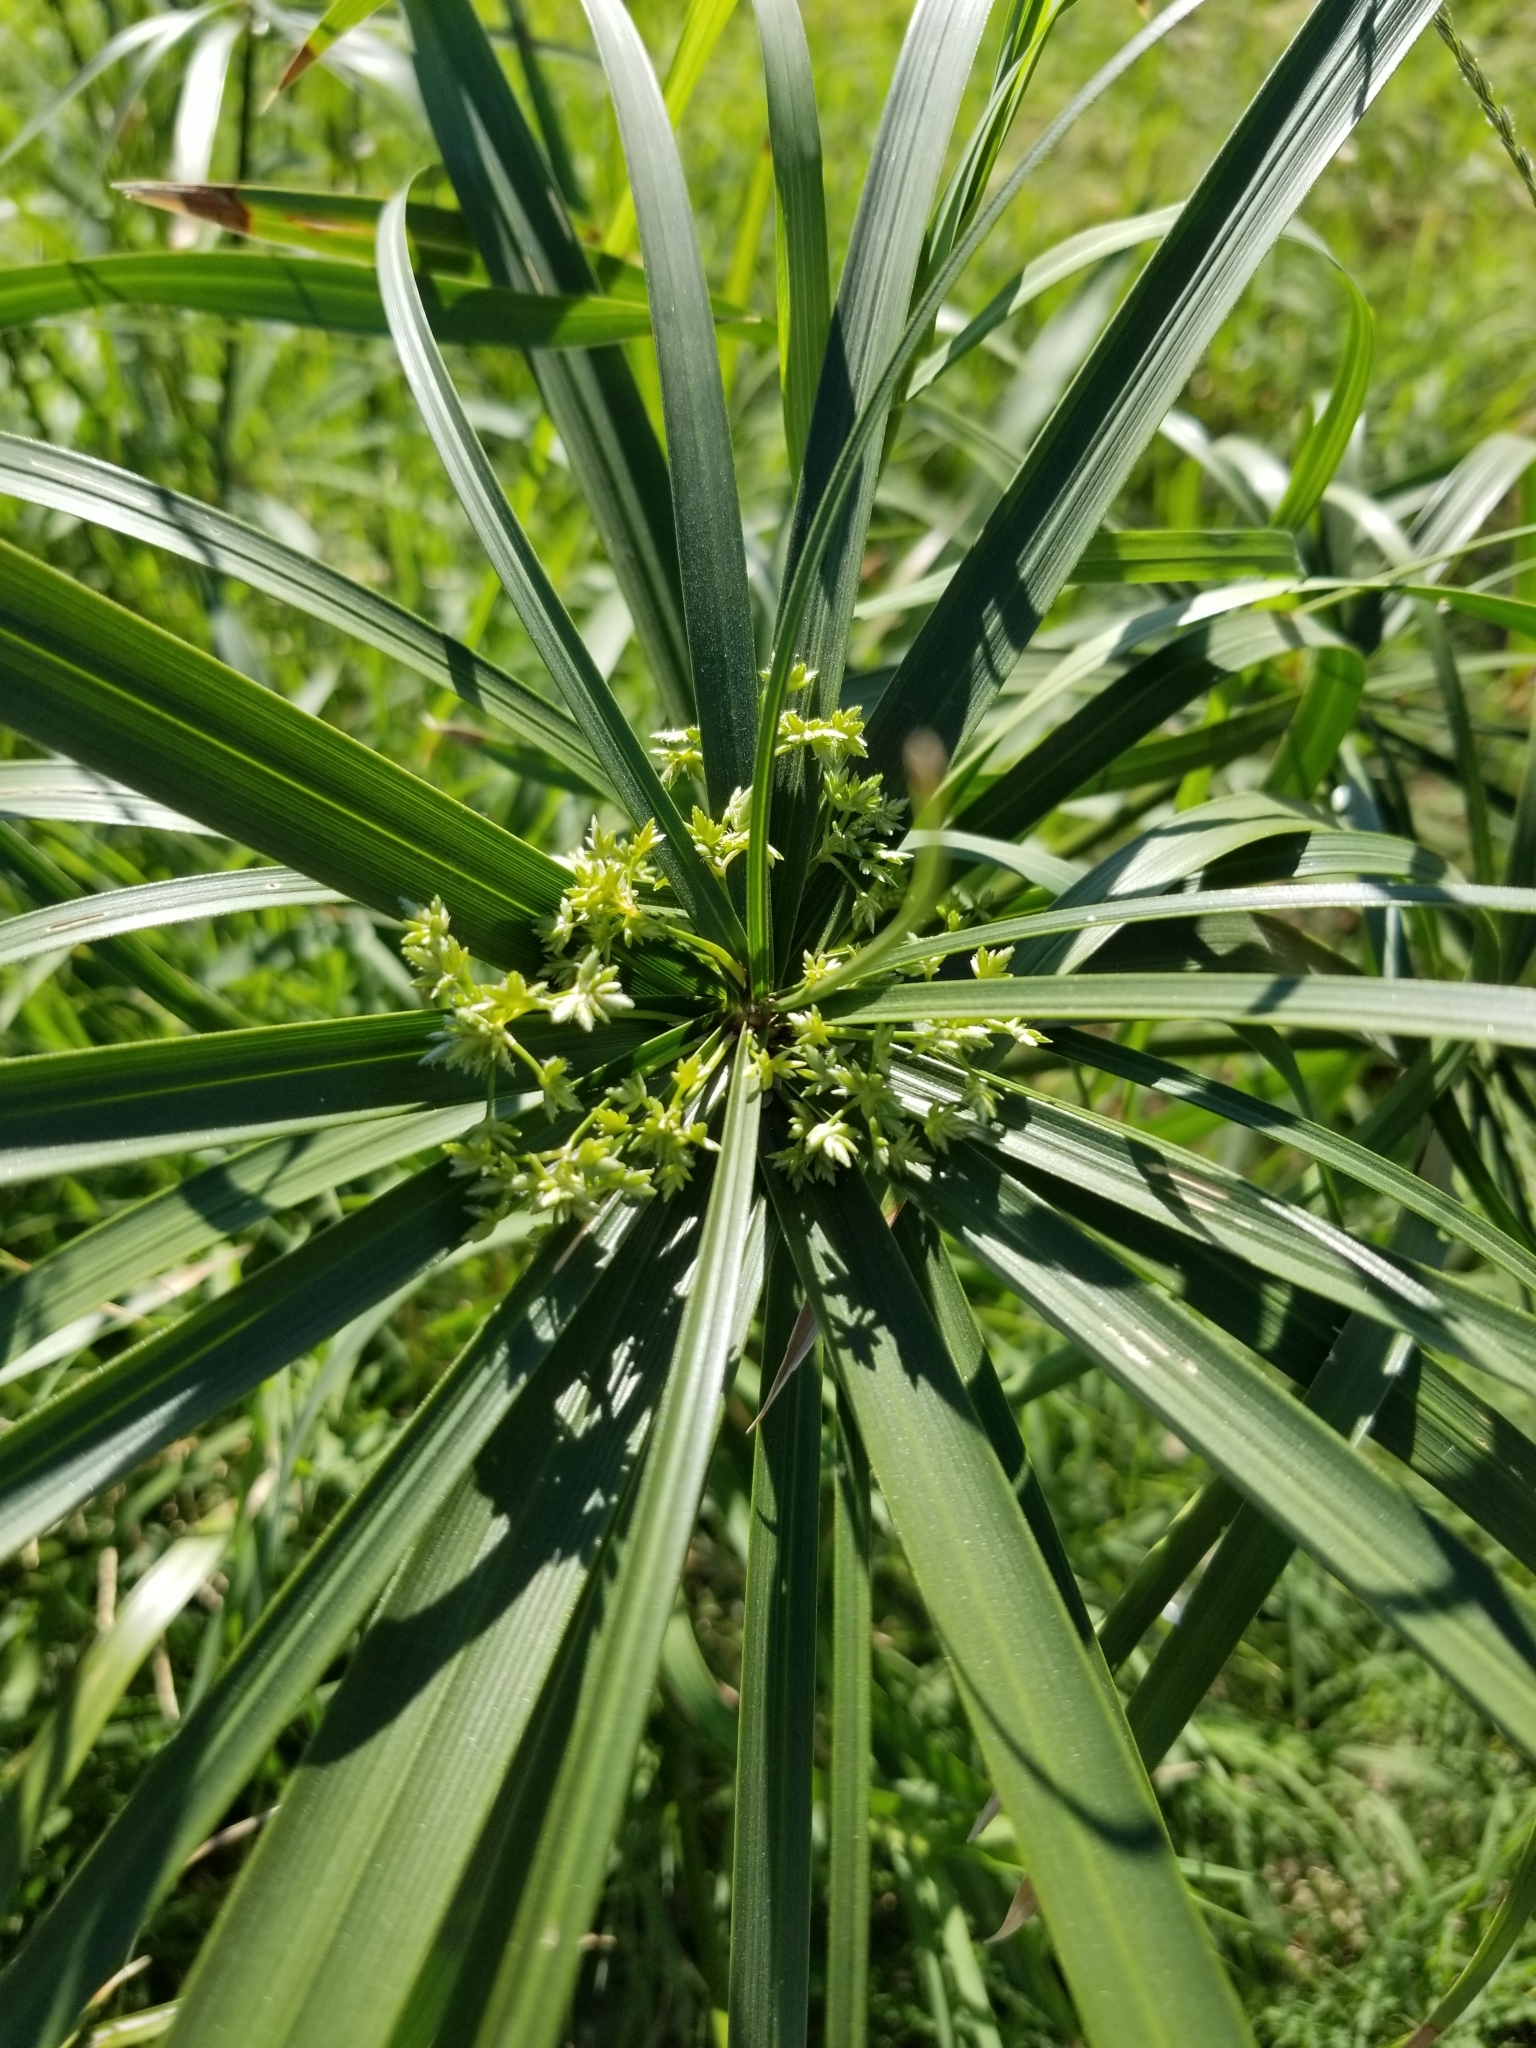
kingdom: Plantae
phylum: Tracheophyta
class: Liliopsida
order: Poales
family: Cyperaceae
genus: Cyperus
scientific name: Cyperus alternifolius
